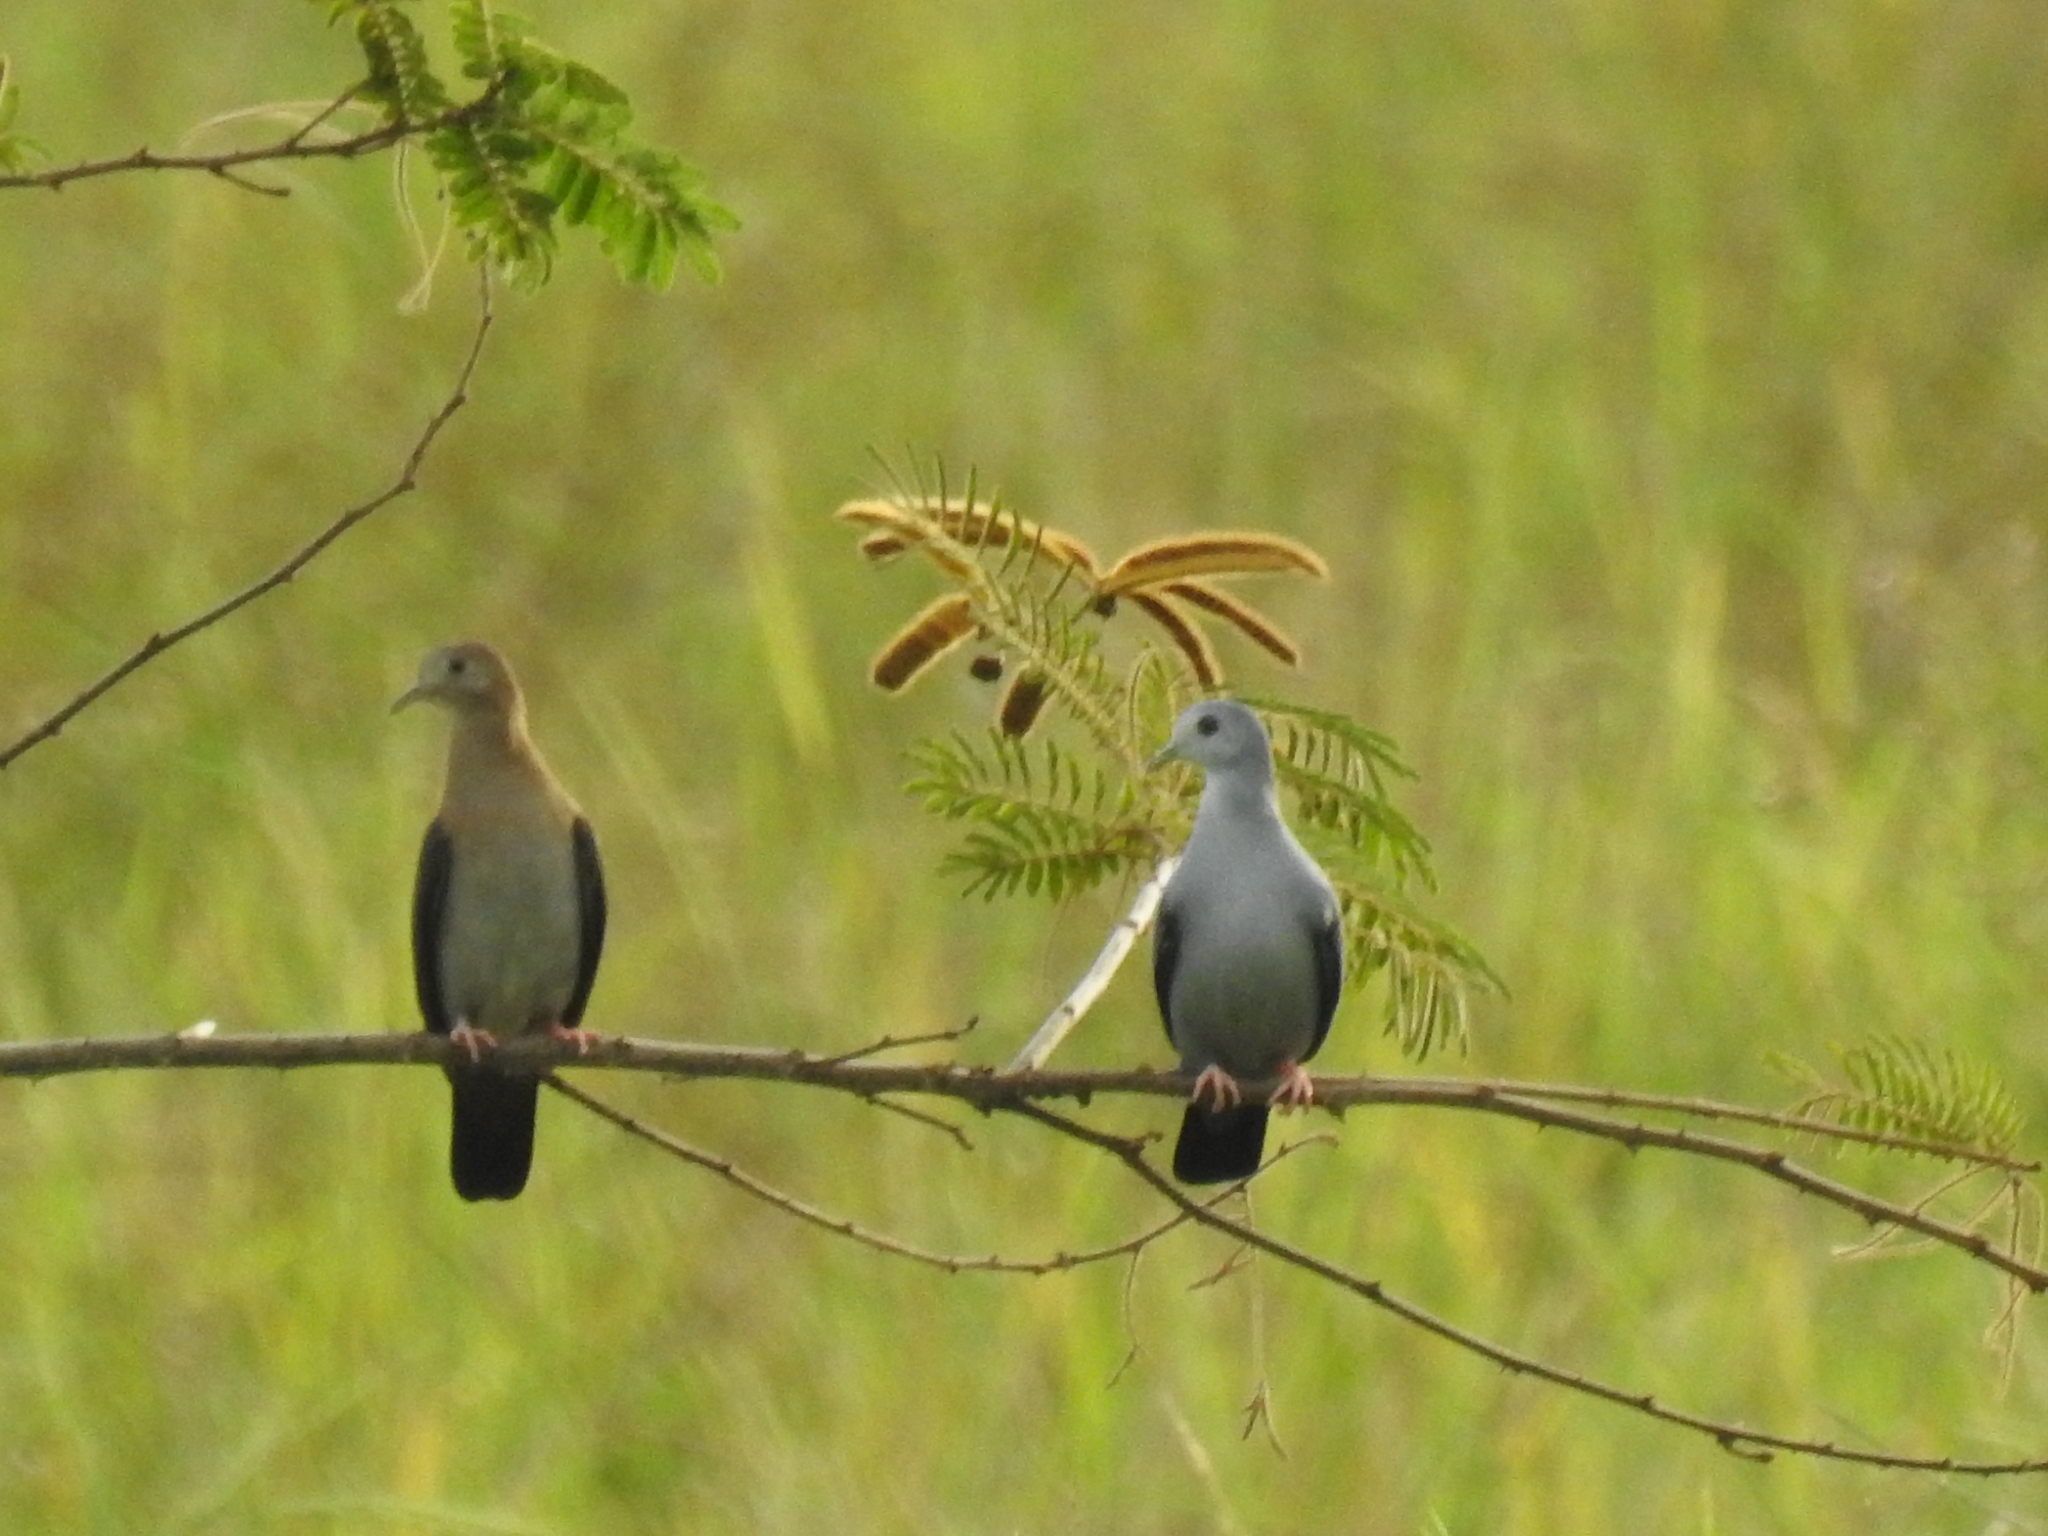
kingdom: Animalia
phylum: Chordata
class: Aves
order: Columbiformes
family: Columbidae
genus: Claravis
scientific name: Claravis pretiosa
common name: Blue ground-dove
